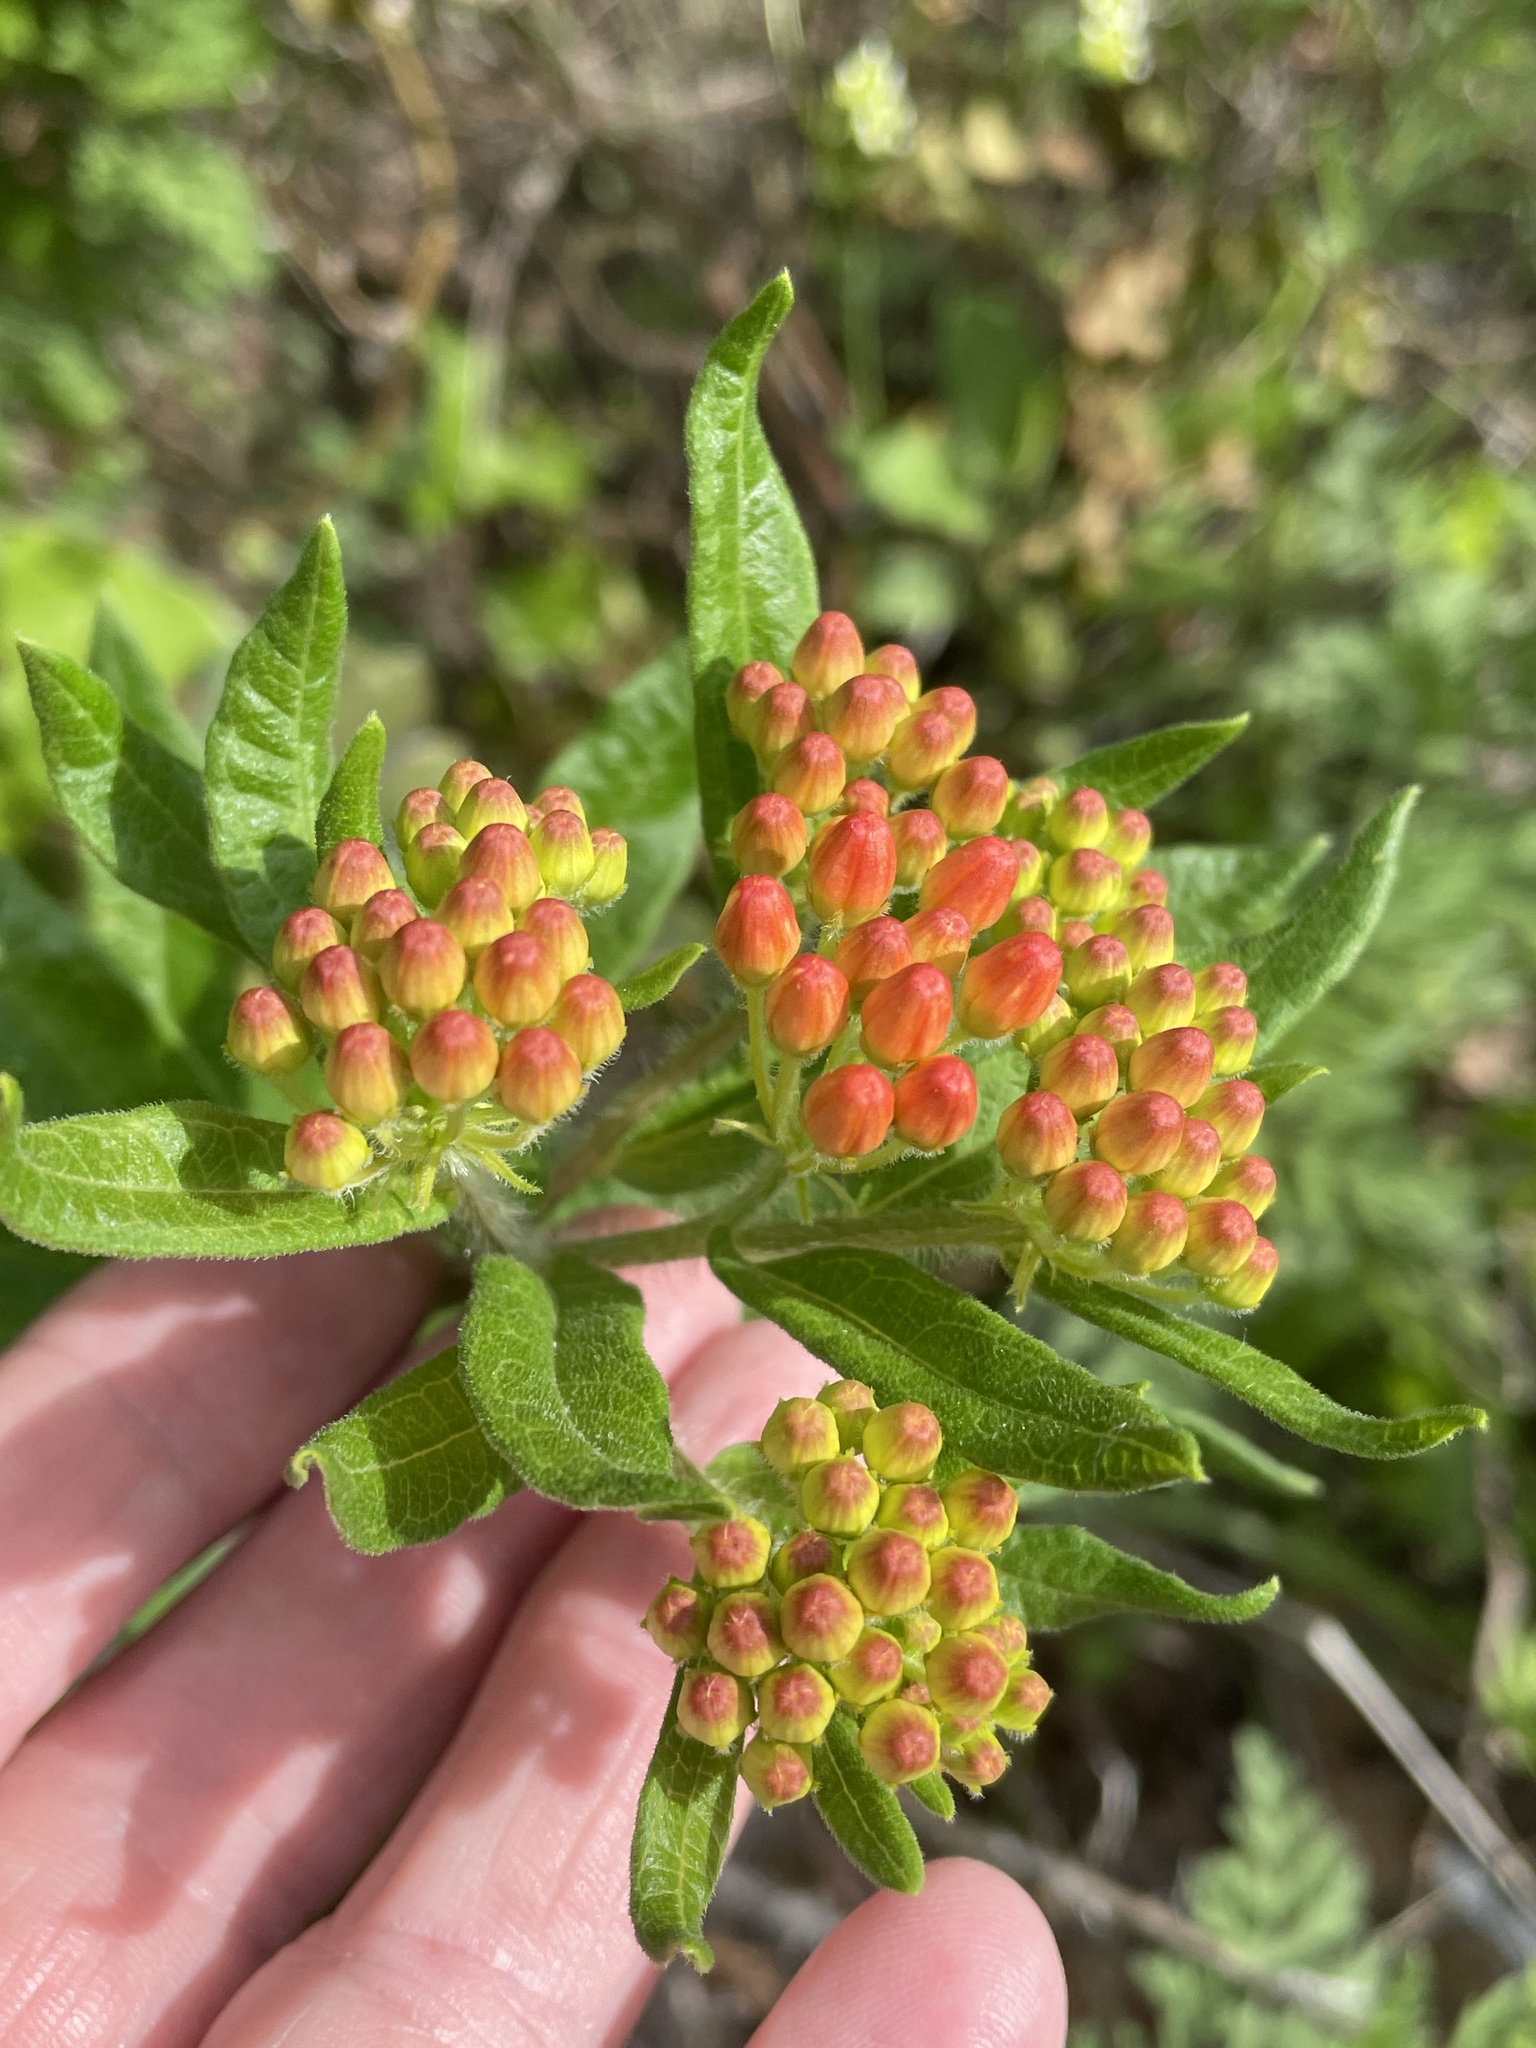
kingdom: Plantae
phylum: Tracheophyta
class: Magnoliopsida
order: Gentianales
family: Apocynaceae
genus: Asclepias
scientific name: Asclepias tuberosa
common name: Butterfly milkweed
